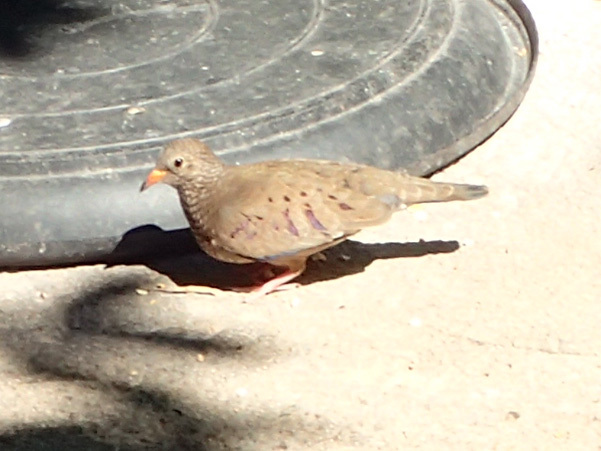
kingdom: Animalia
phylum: Chordata
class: Aves
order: Columbiformes
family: Columbidae
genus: Columbina
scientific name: Columbina passerina
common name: Common ground-dove
